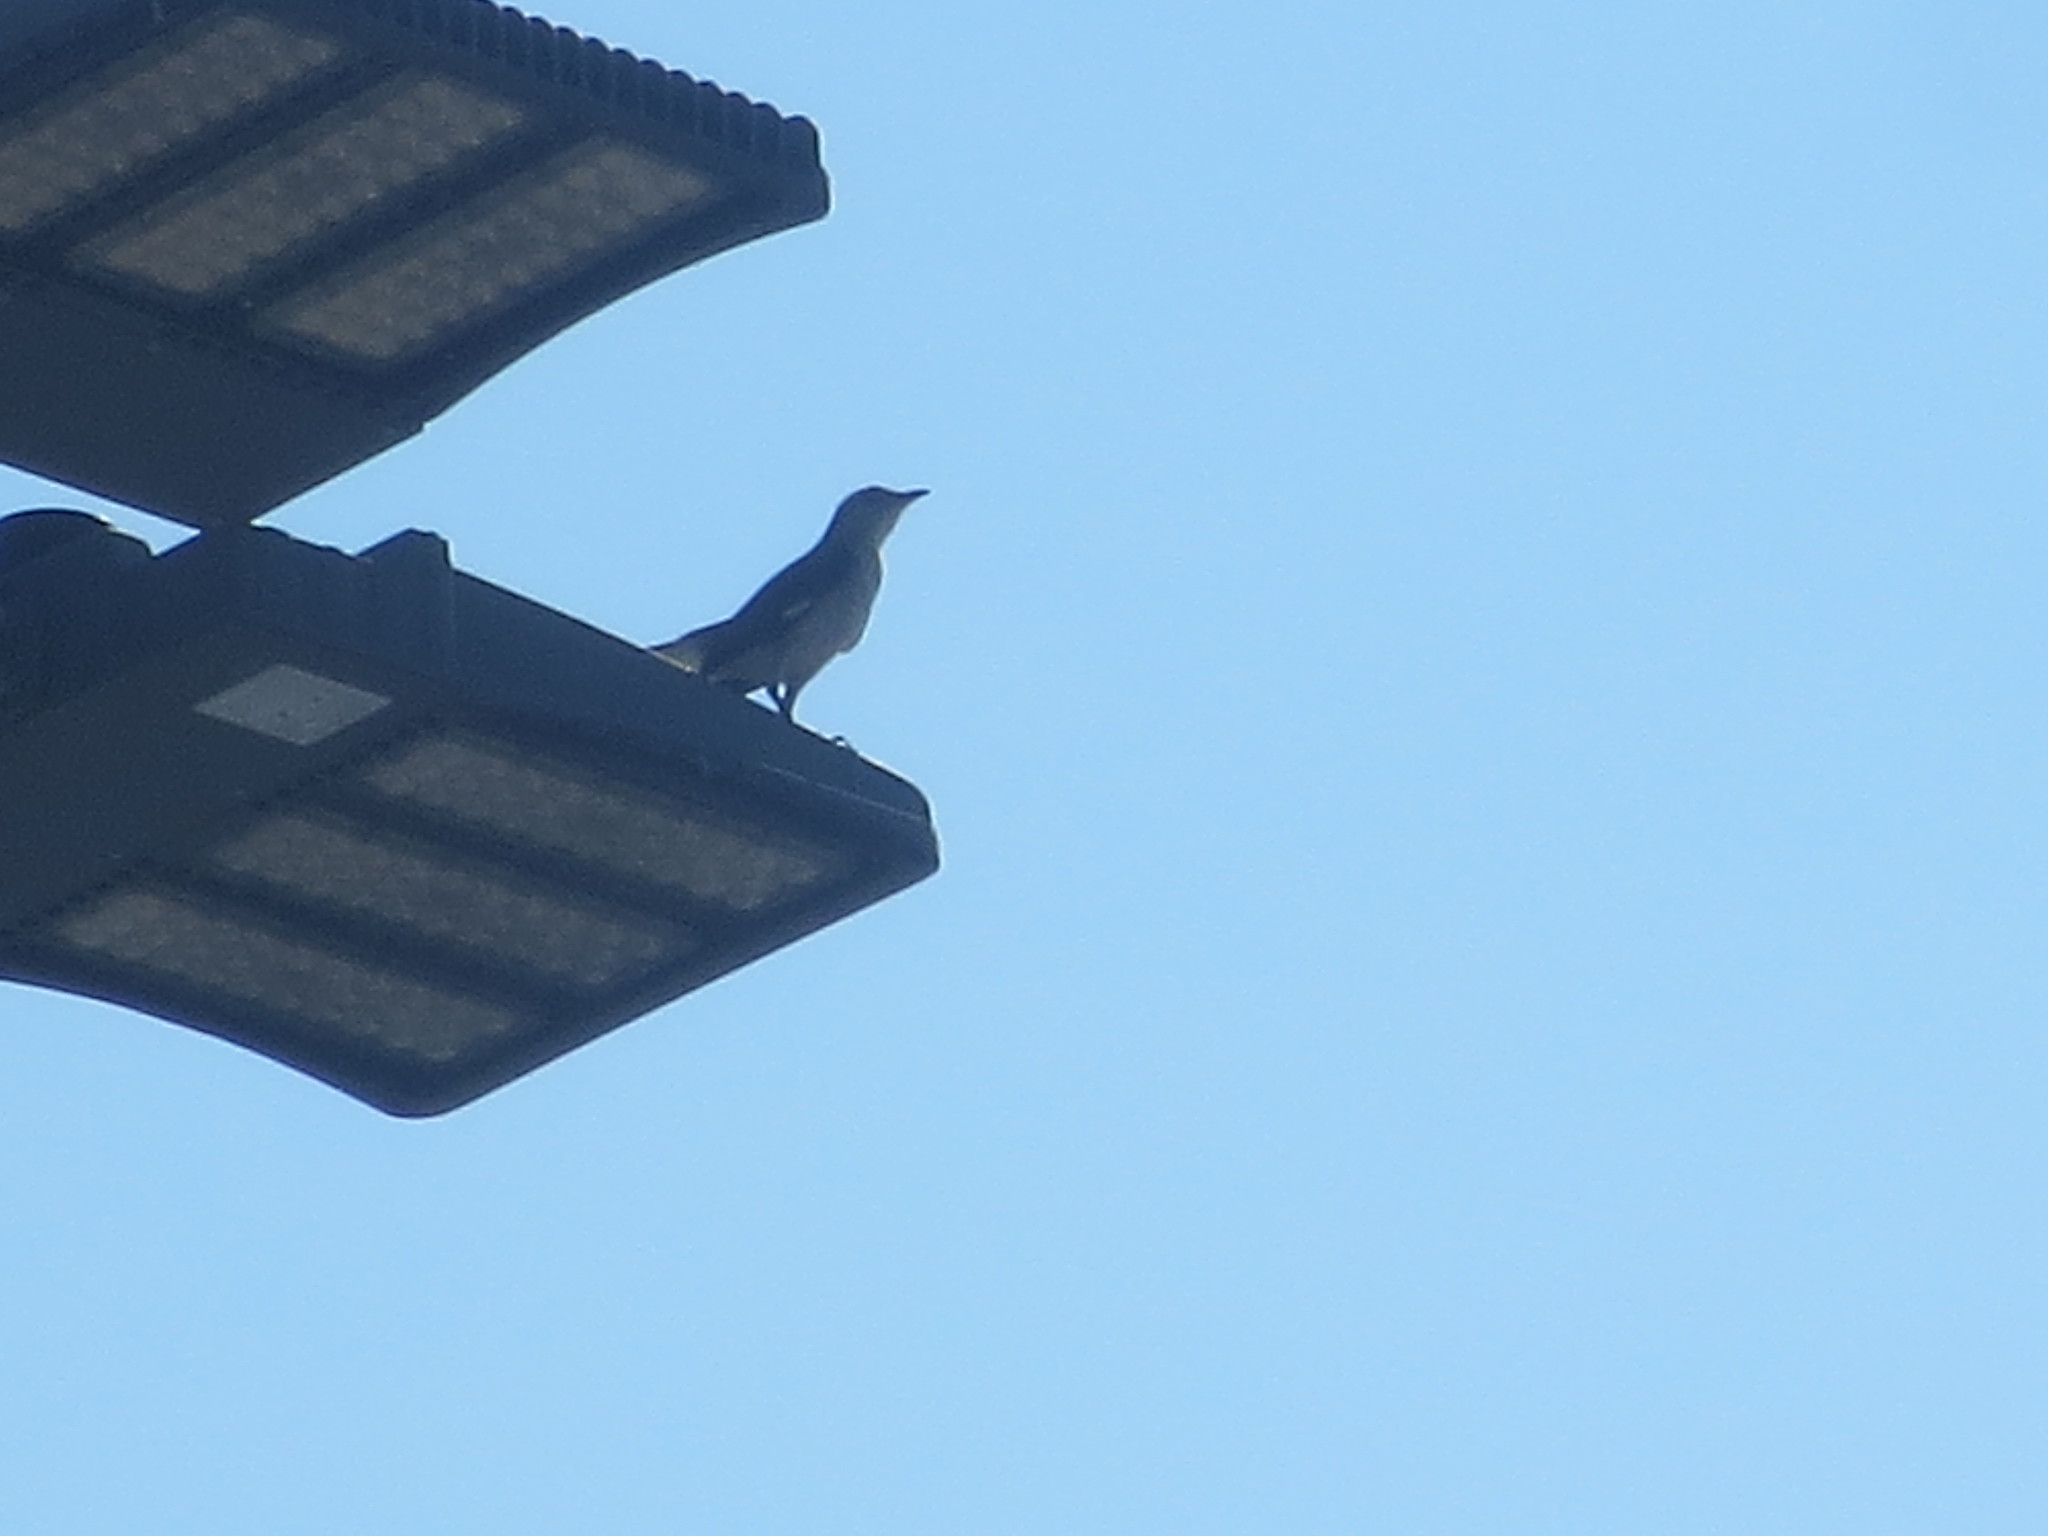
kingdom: Animalia
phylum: Chordata
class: Aves
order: Passeriformes
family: Mimidae
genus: Mimus
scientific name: Mimus polyglottos
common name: Northern mockingbird
